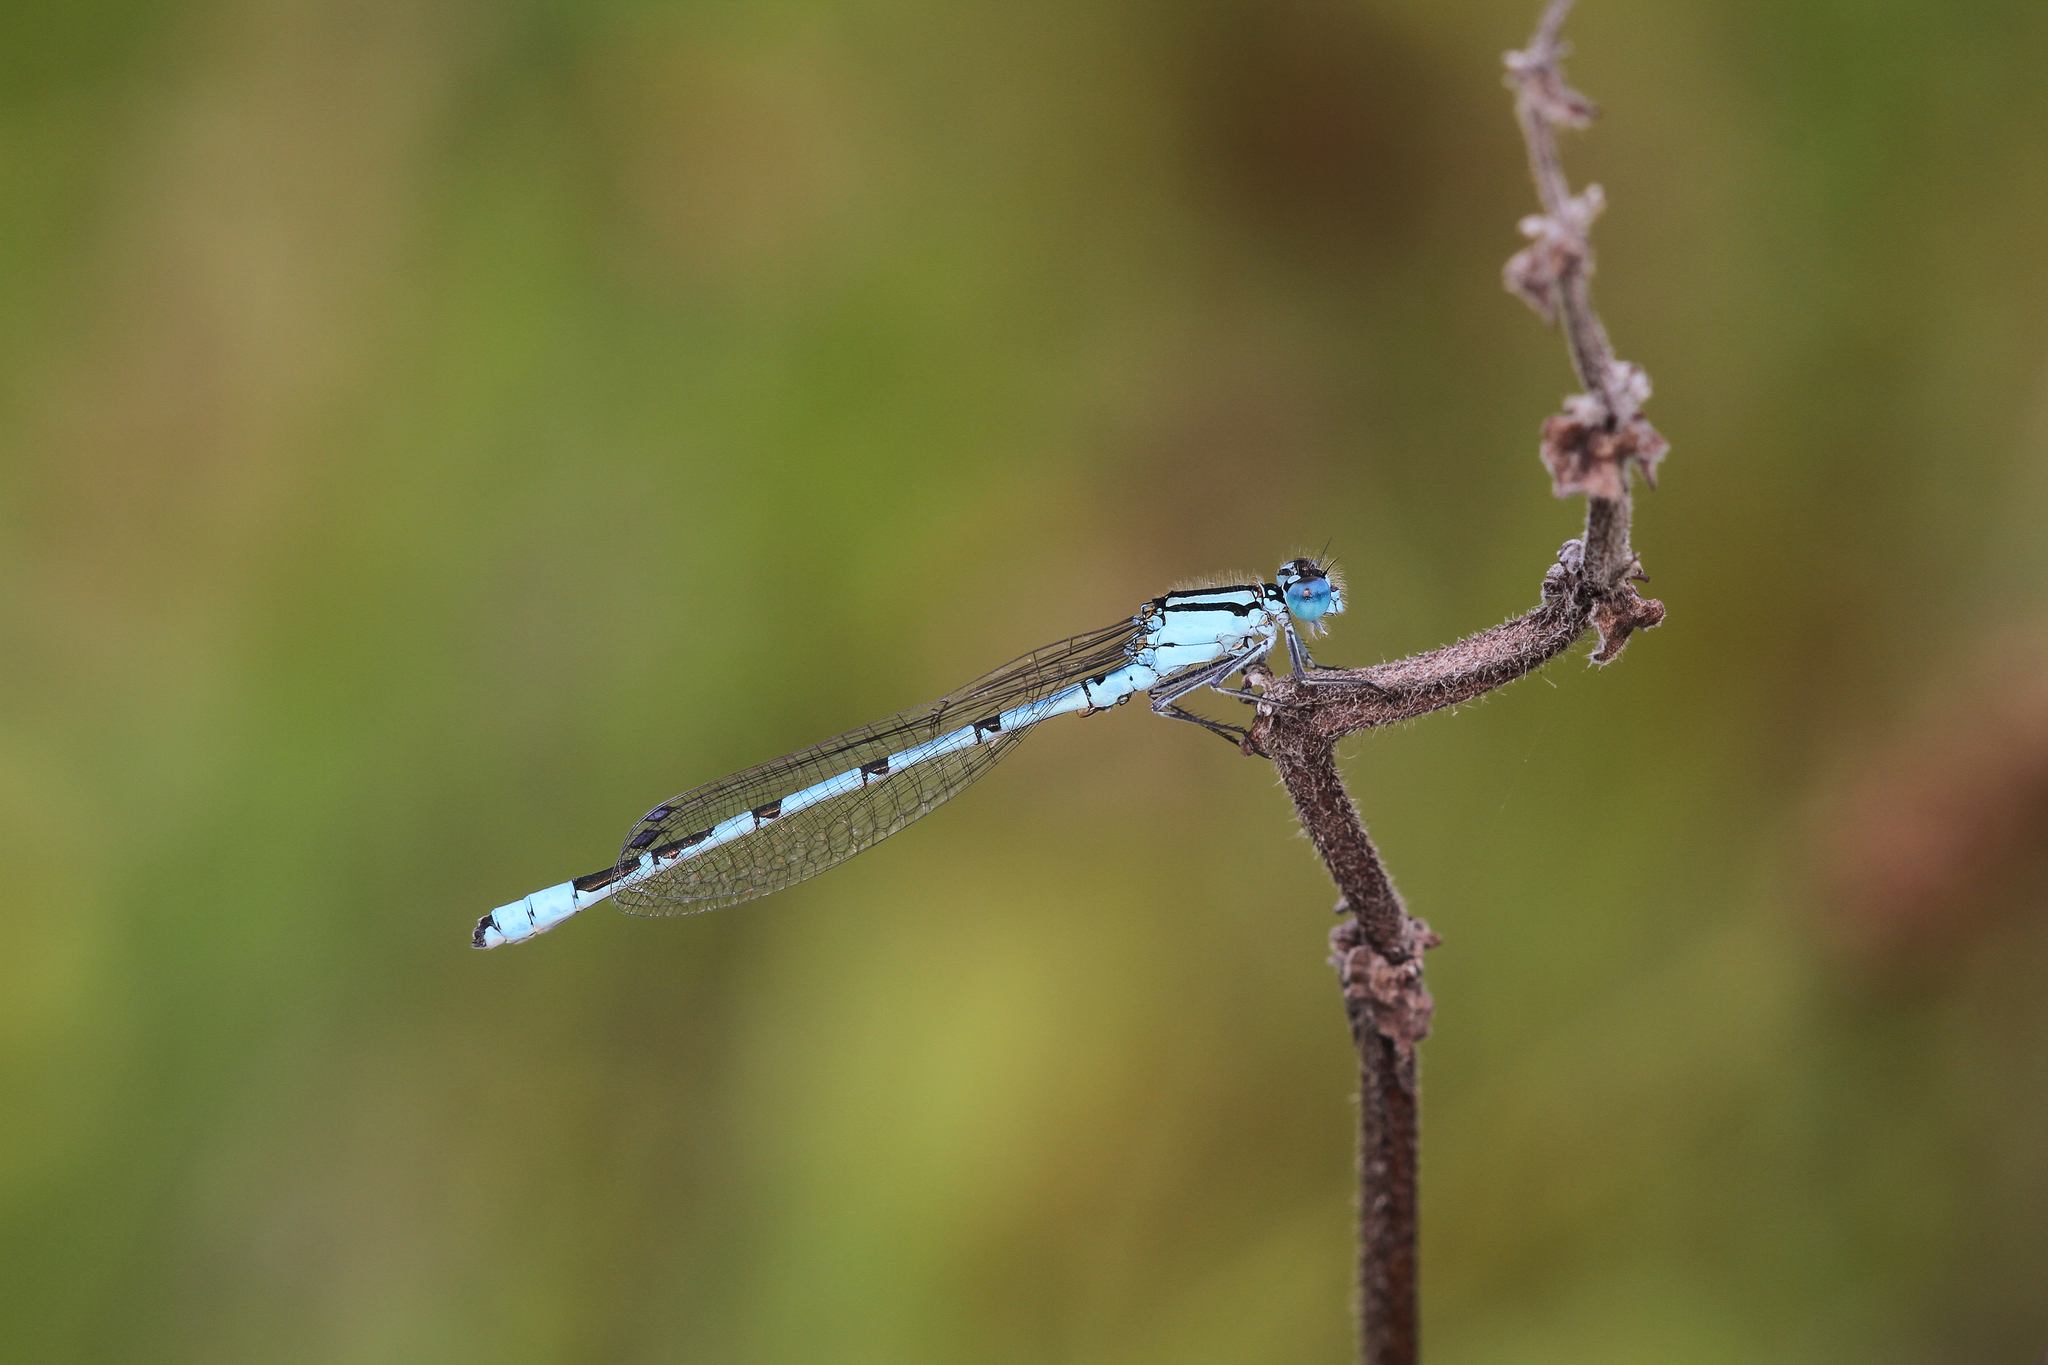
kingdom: Animalia
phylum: Arthropoda
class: Insecta
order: Odonata
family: Coenagrionidae
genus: Enallagma
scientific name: Enallagma cyathigerum
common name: Common blue damselfly
